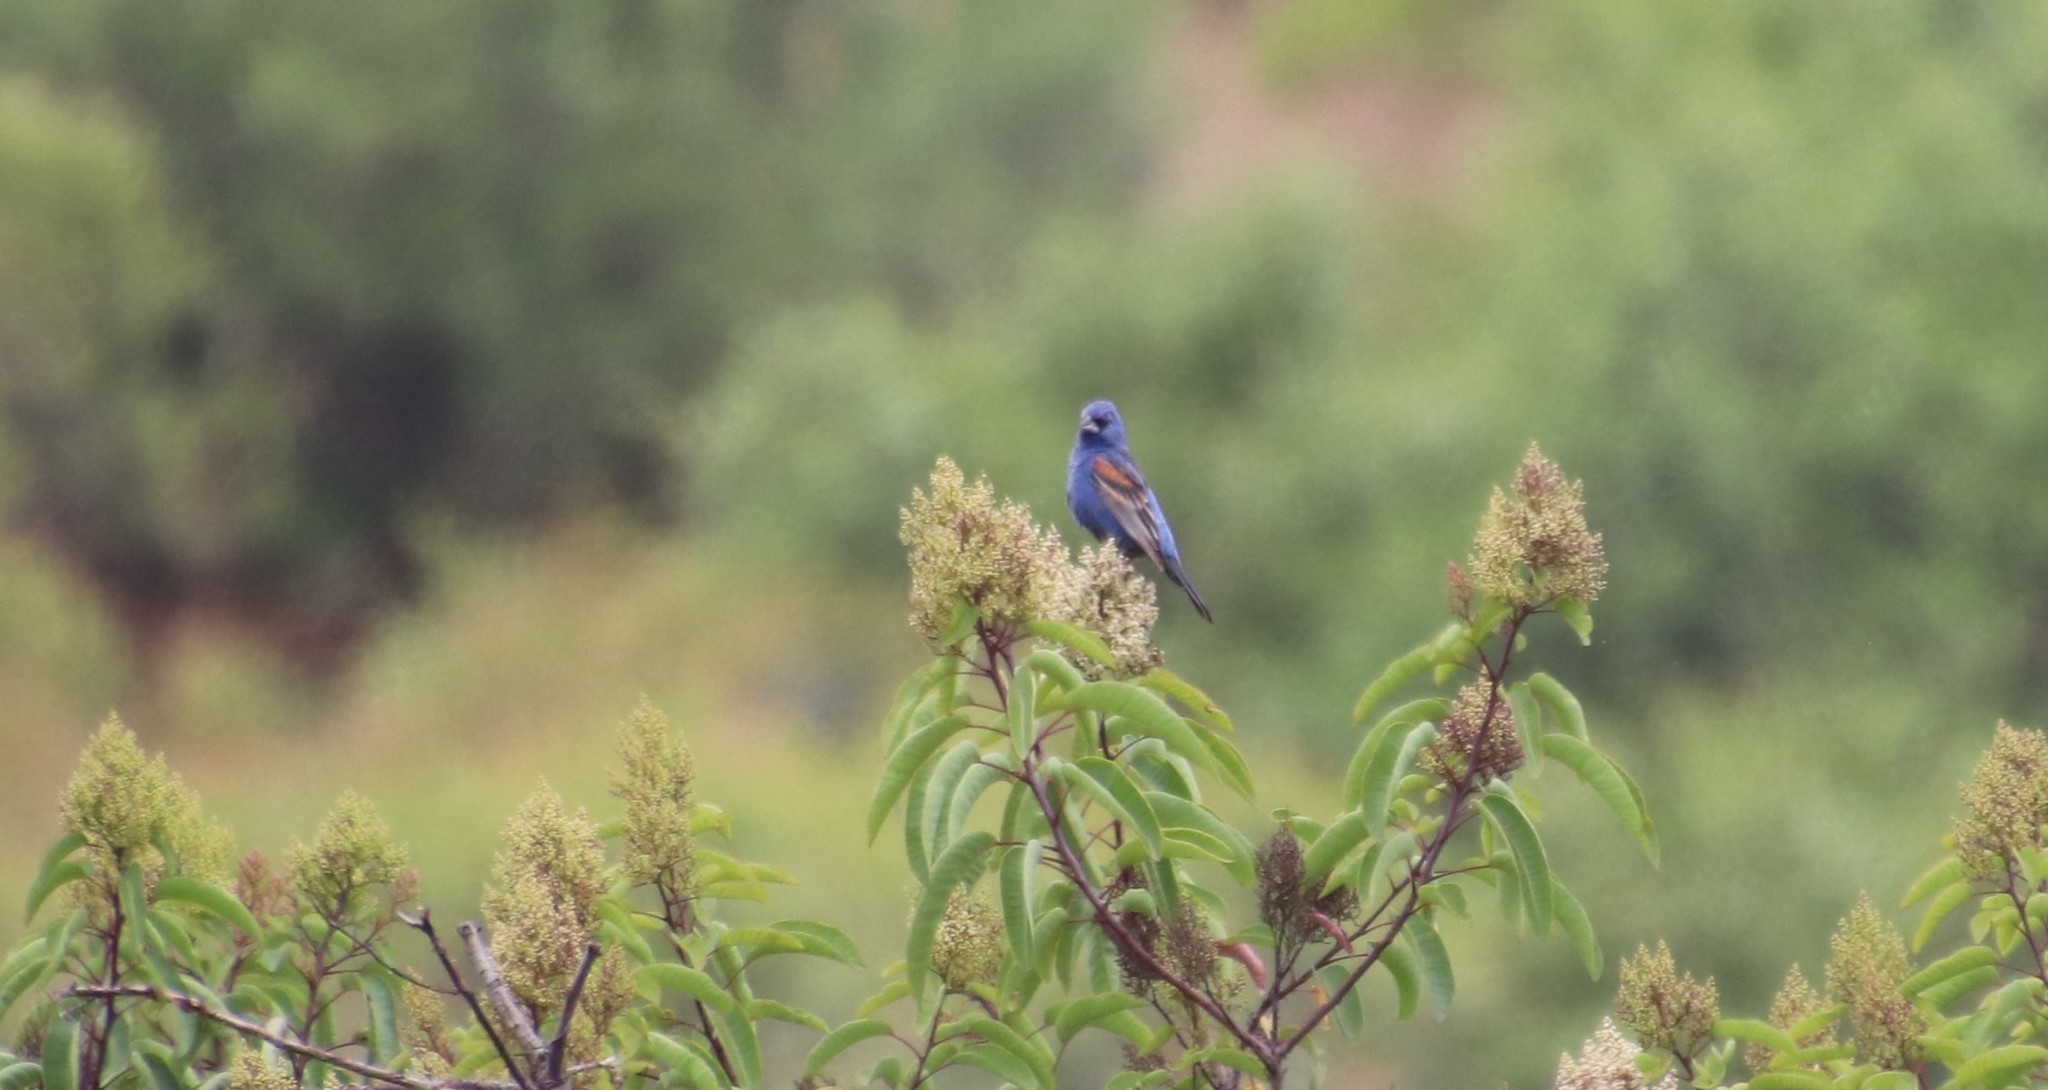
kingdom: Animalia
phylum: Chordata
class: Aves
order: Passeriformes
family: Cardinalidae
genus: Passerina
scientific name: Passerina caerulea
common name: Blue grosbeak
